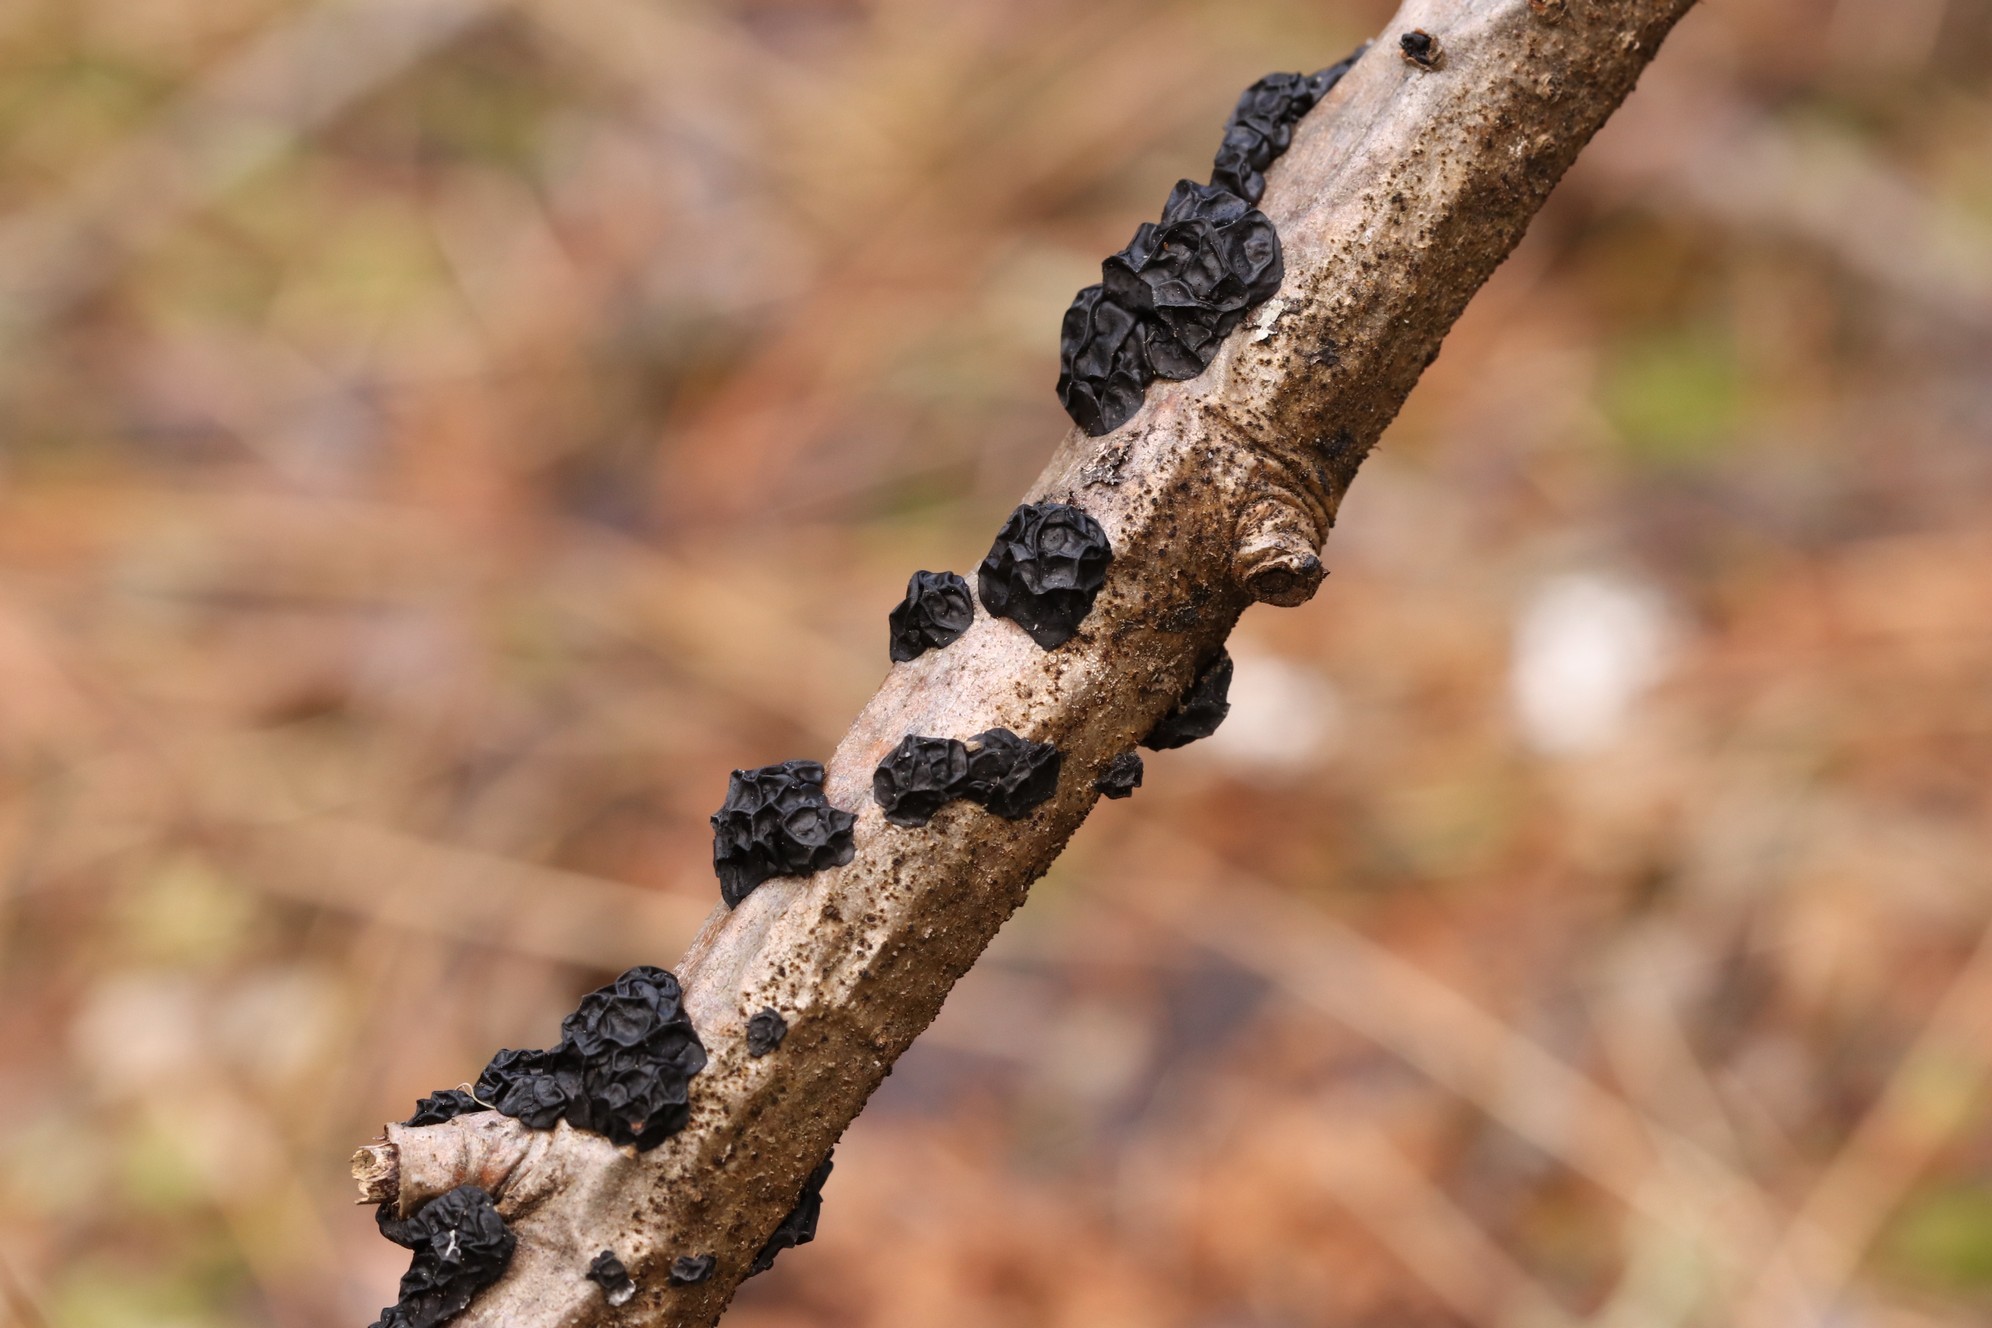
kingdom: Fungi
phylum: Basidiomycota
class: Agaricomycetes
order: Auriculariales
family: Auriculariaceae
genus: Exidia
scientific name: Exidia glandulosa
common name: Witches' butter
